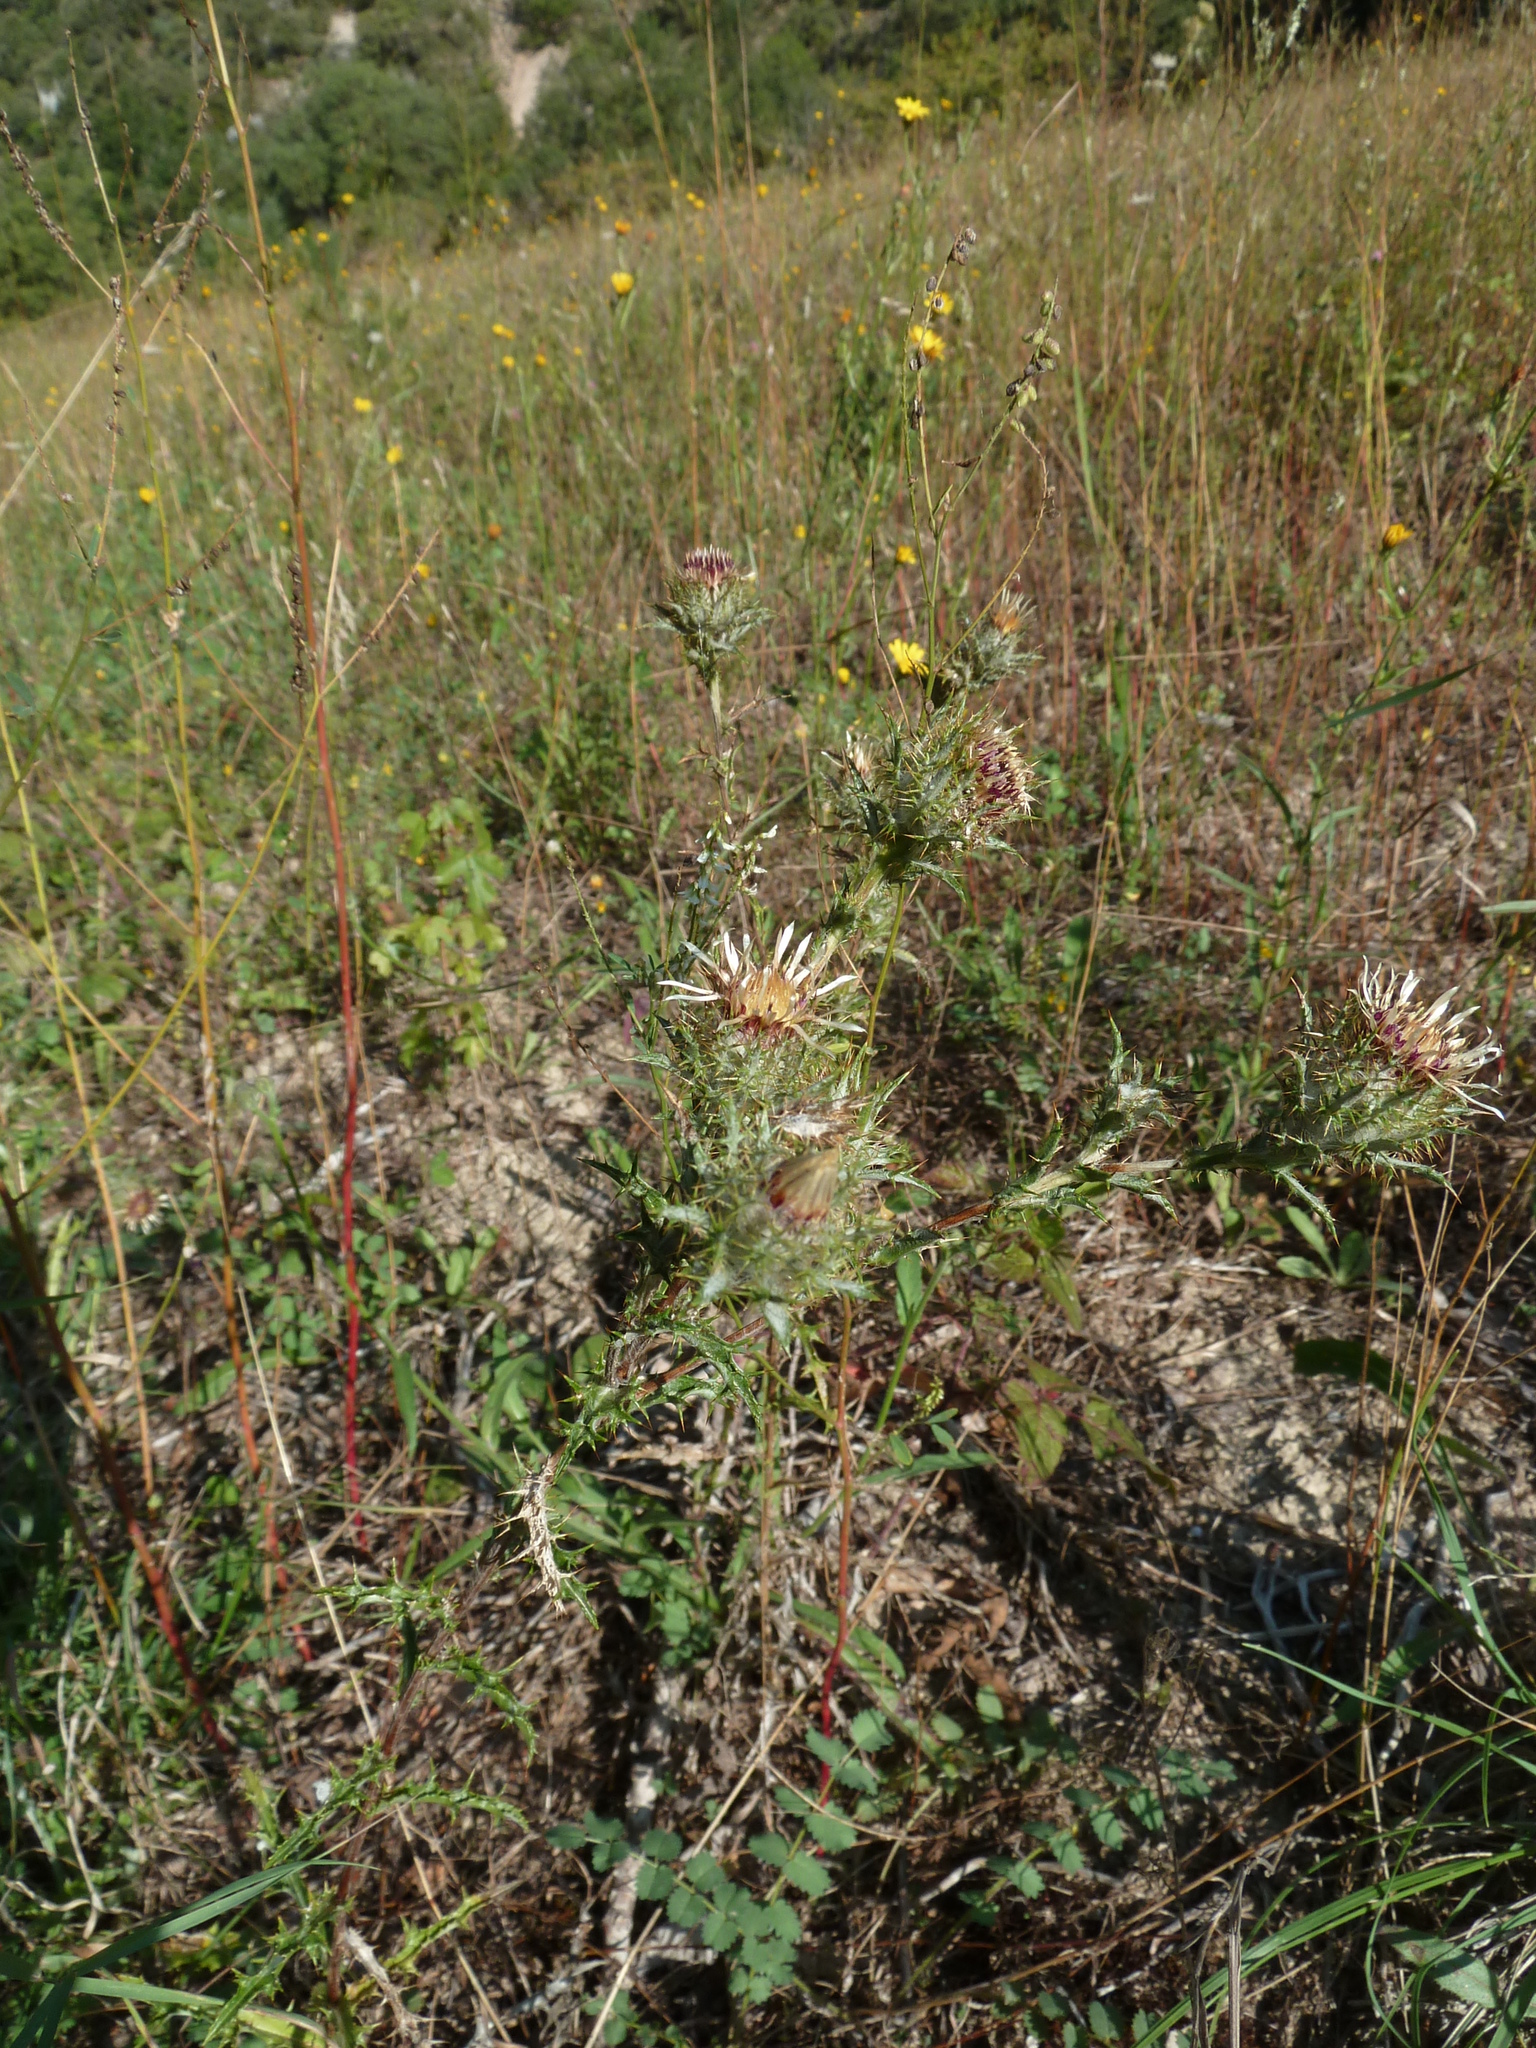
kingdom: Plantae
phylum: Tracheophyta
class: Magnoliopsida
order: Asterales
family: Asteraceae
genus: Carlina
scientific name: Carlina vulgaris
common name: Carline thistle
